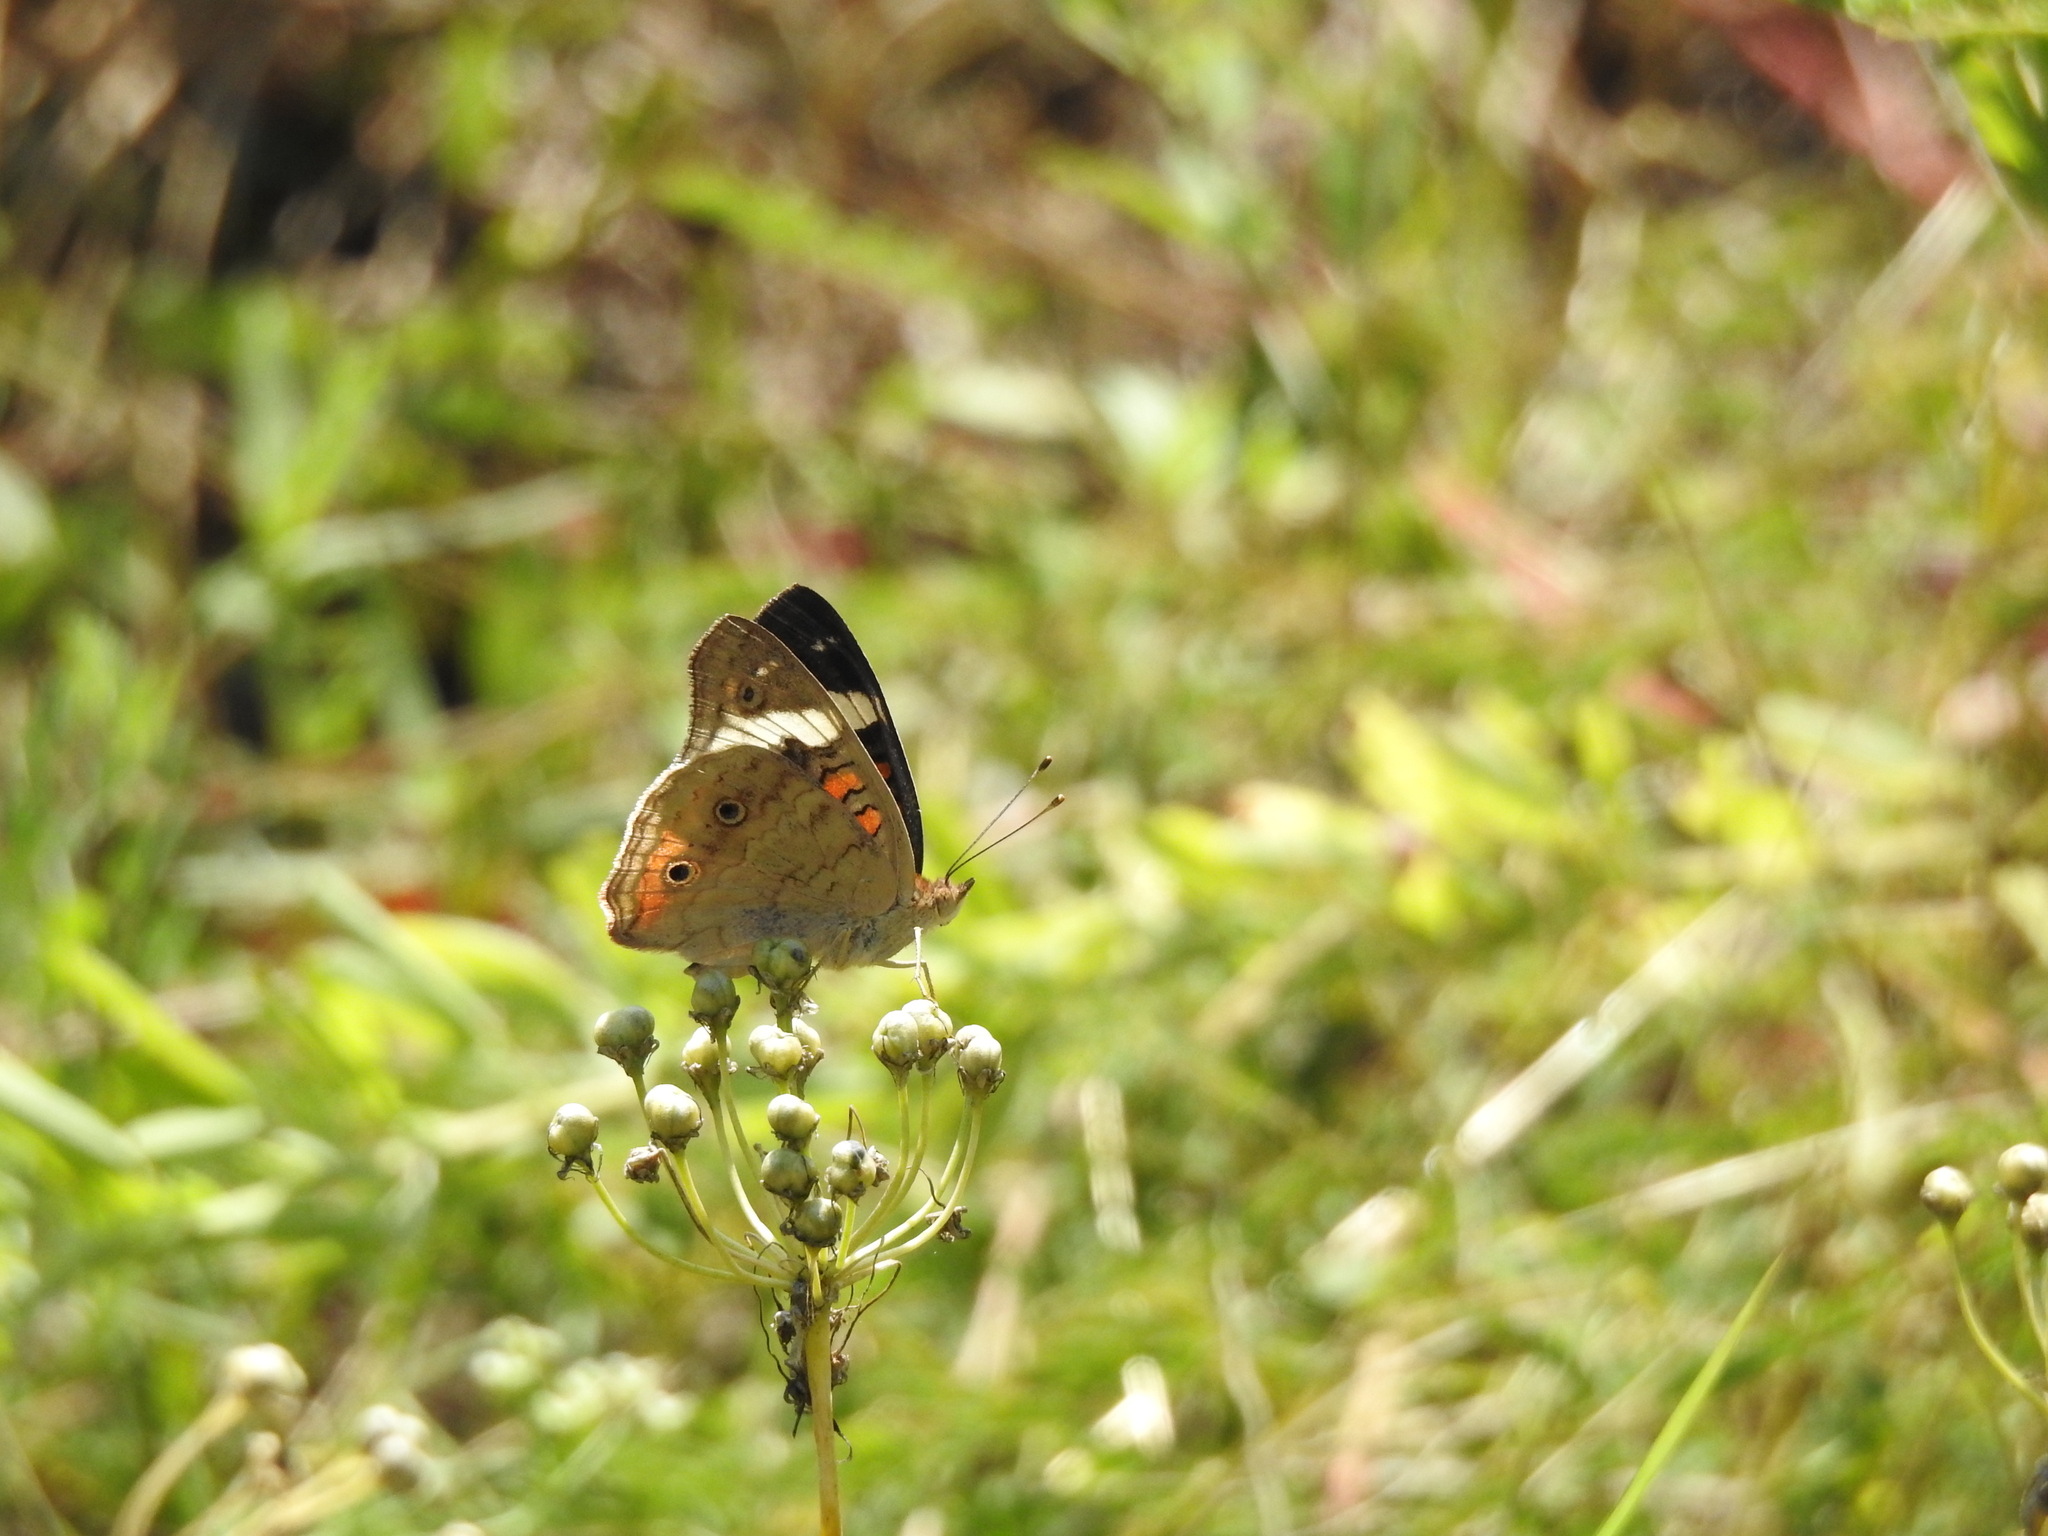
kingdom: Animalia
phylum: Arthropoda
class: Insecta
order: Lepidoptera
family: Nymphalidae
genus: Junonia
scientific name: Junonia coenia
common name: Common buckeye
